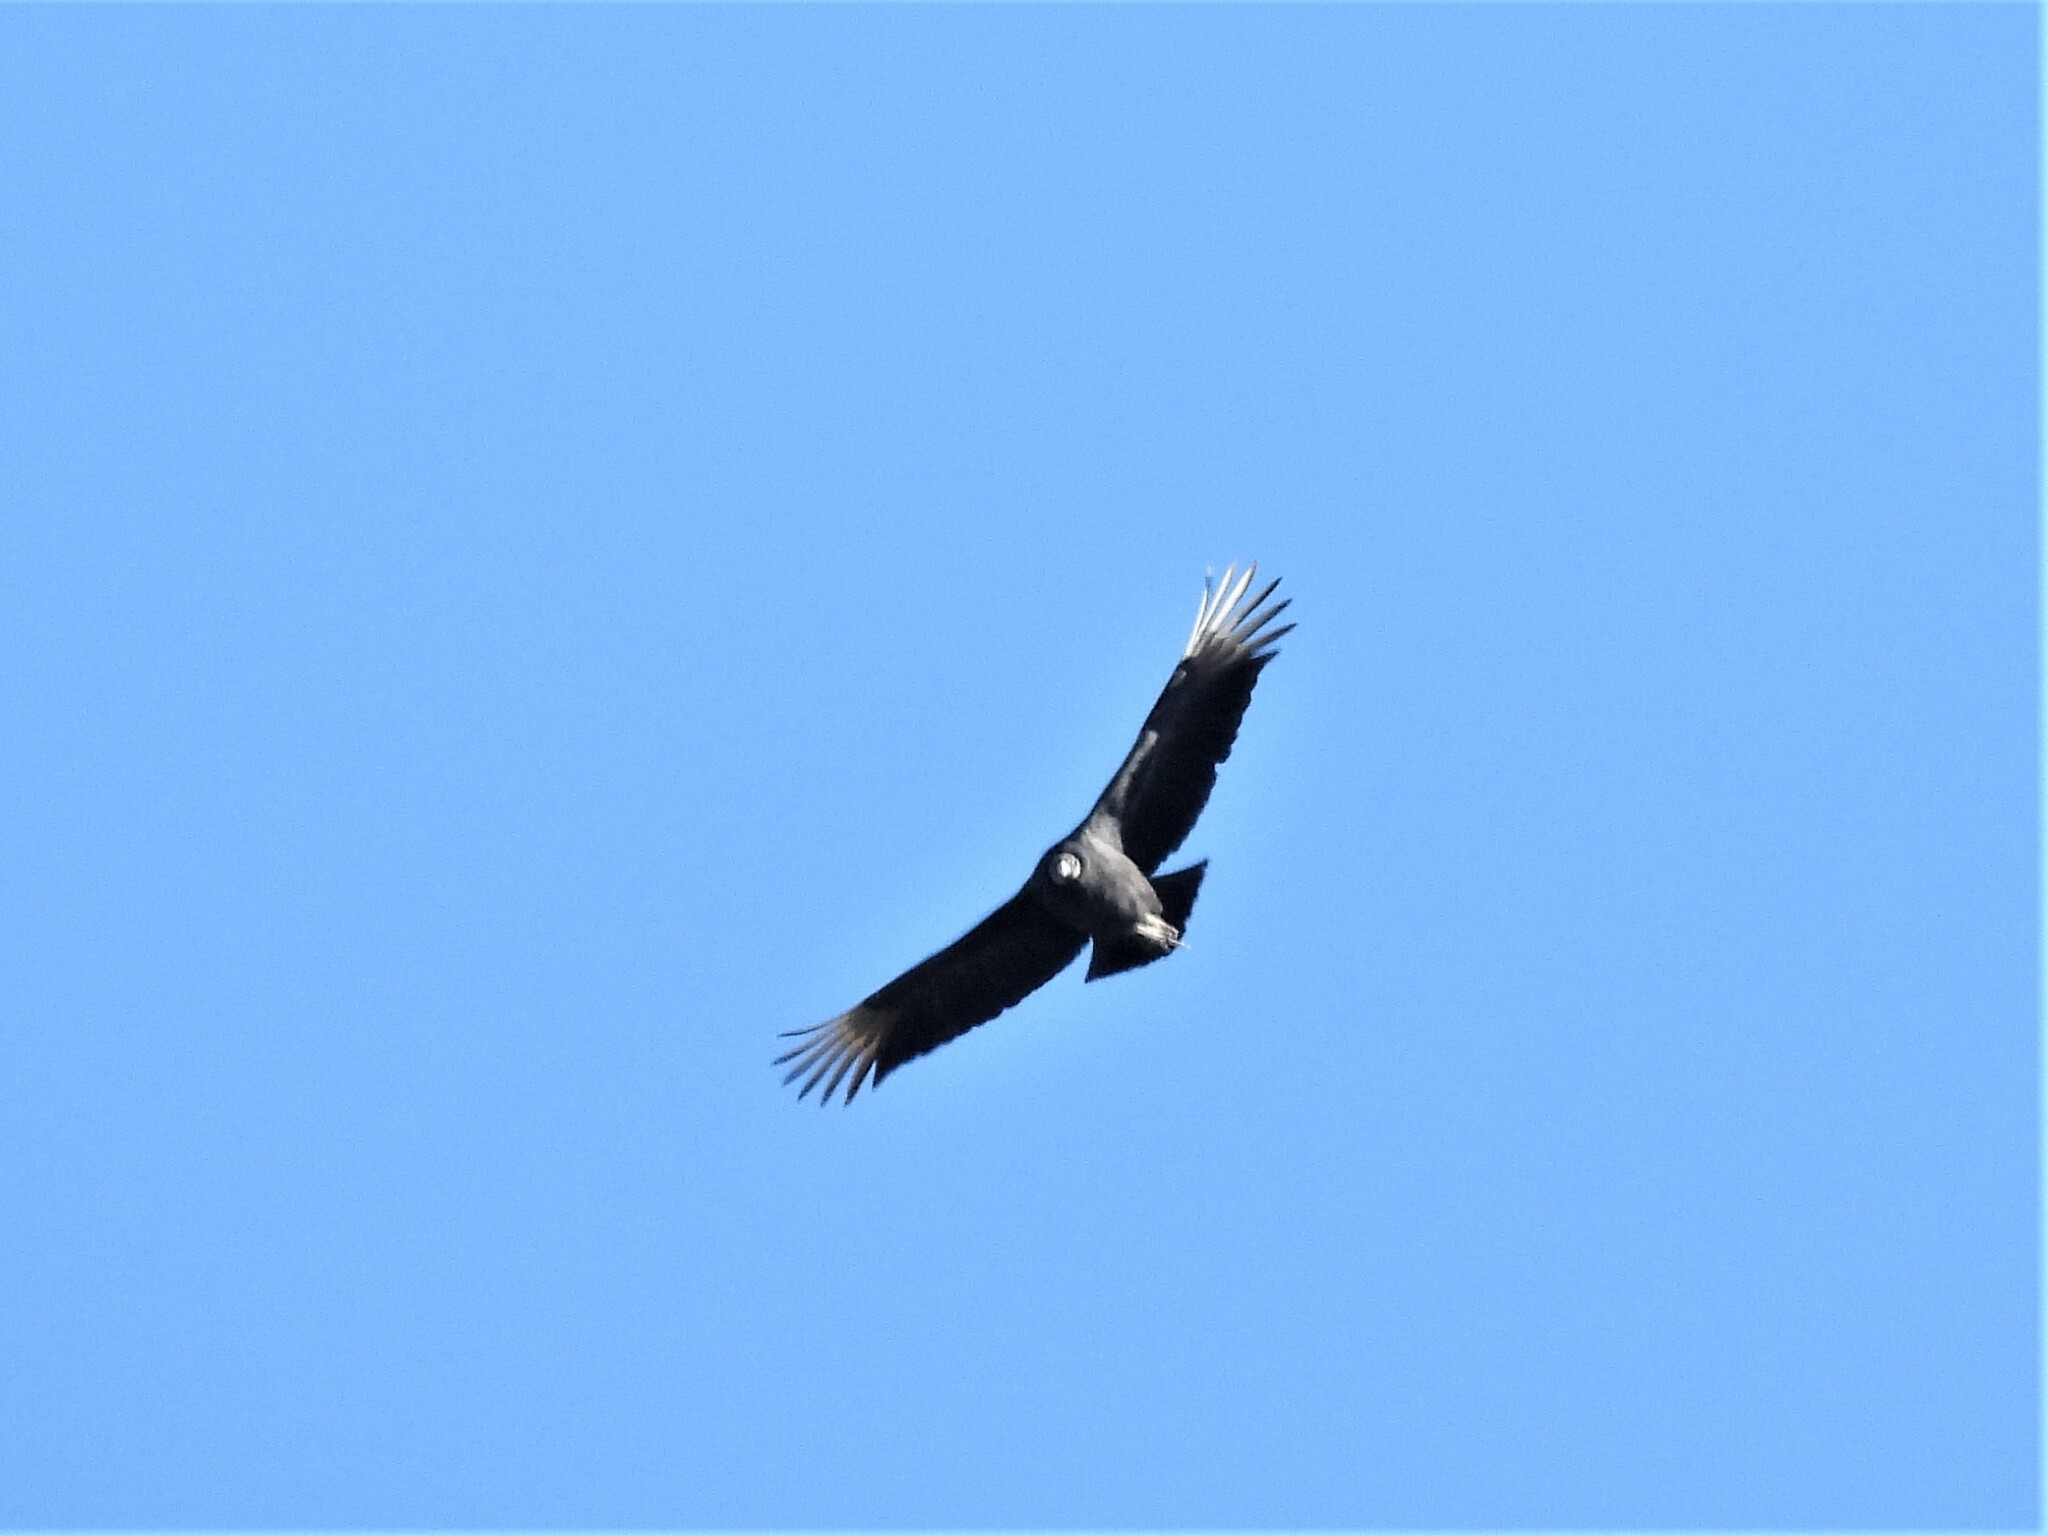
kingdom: Animalia
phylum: Chordata
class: Aves
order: Accipitriformes
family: Cathartidae
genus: Coragyps
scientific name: Coragyps atratus
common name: Black vulture
